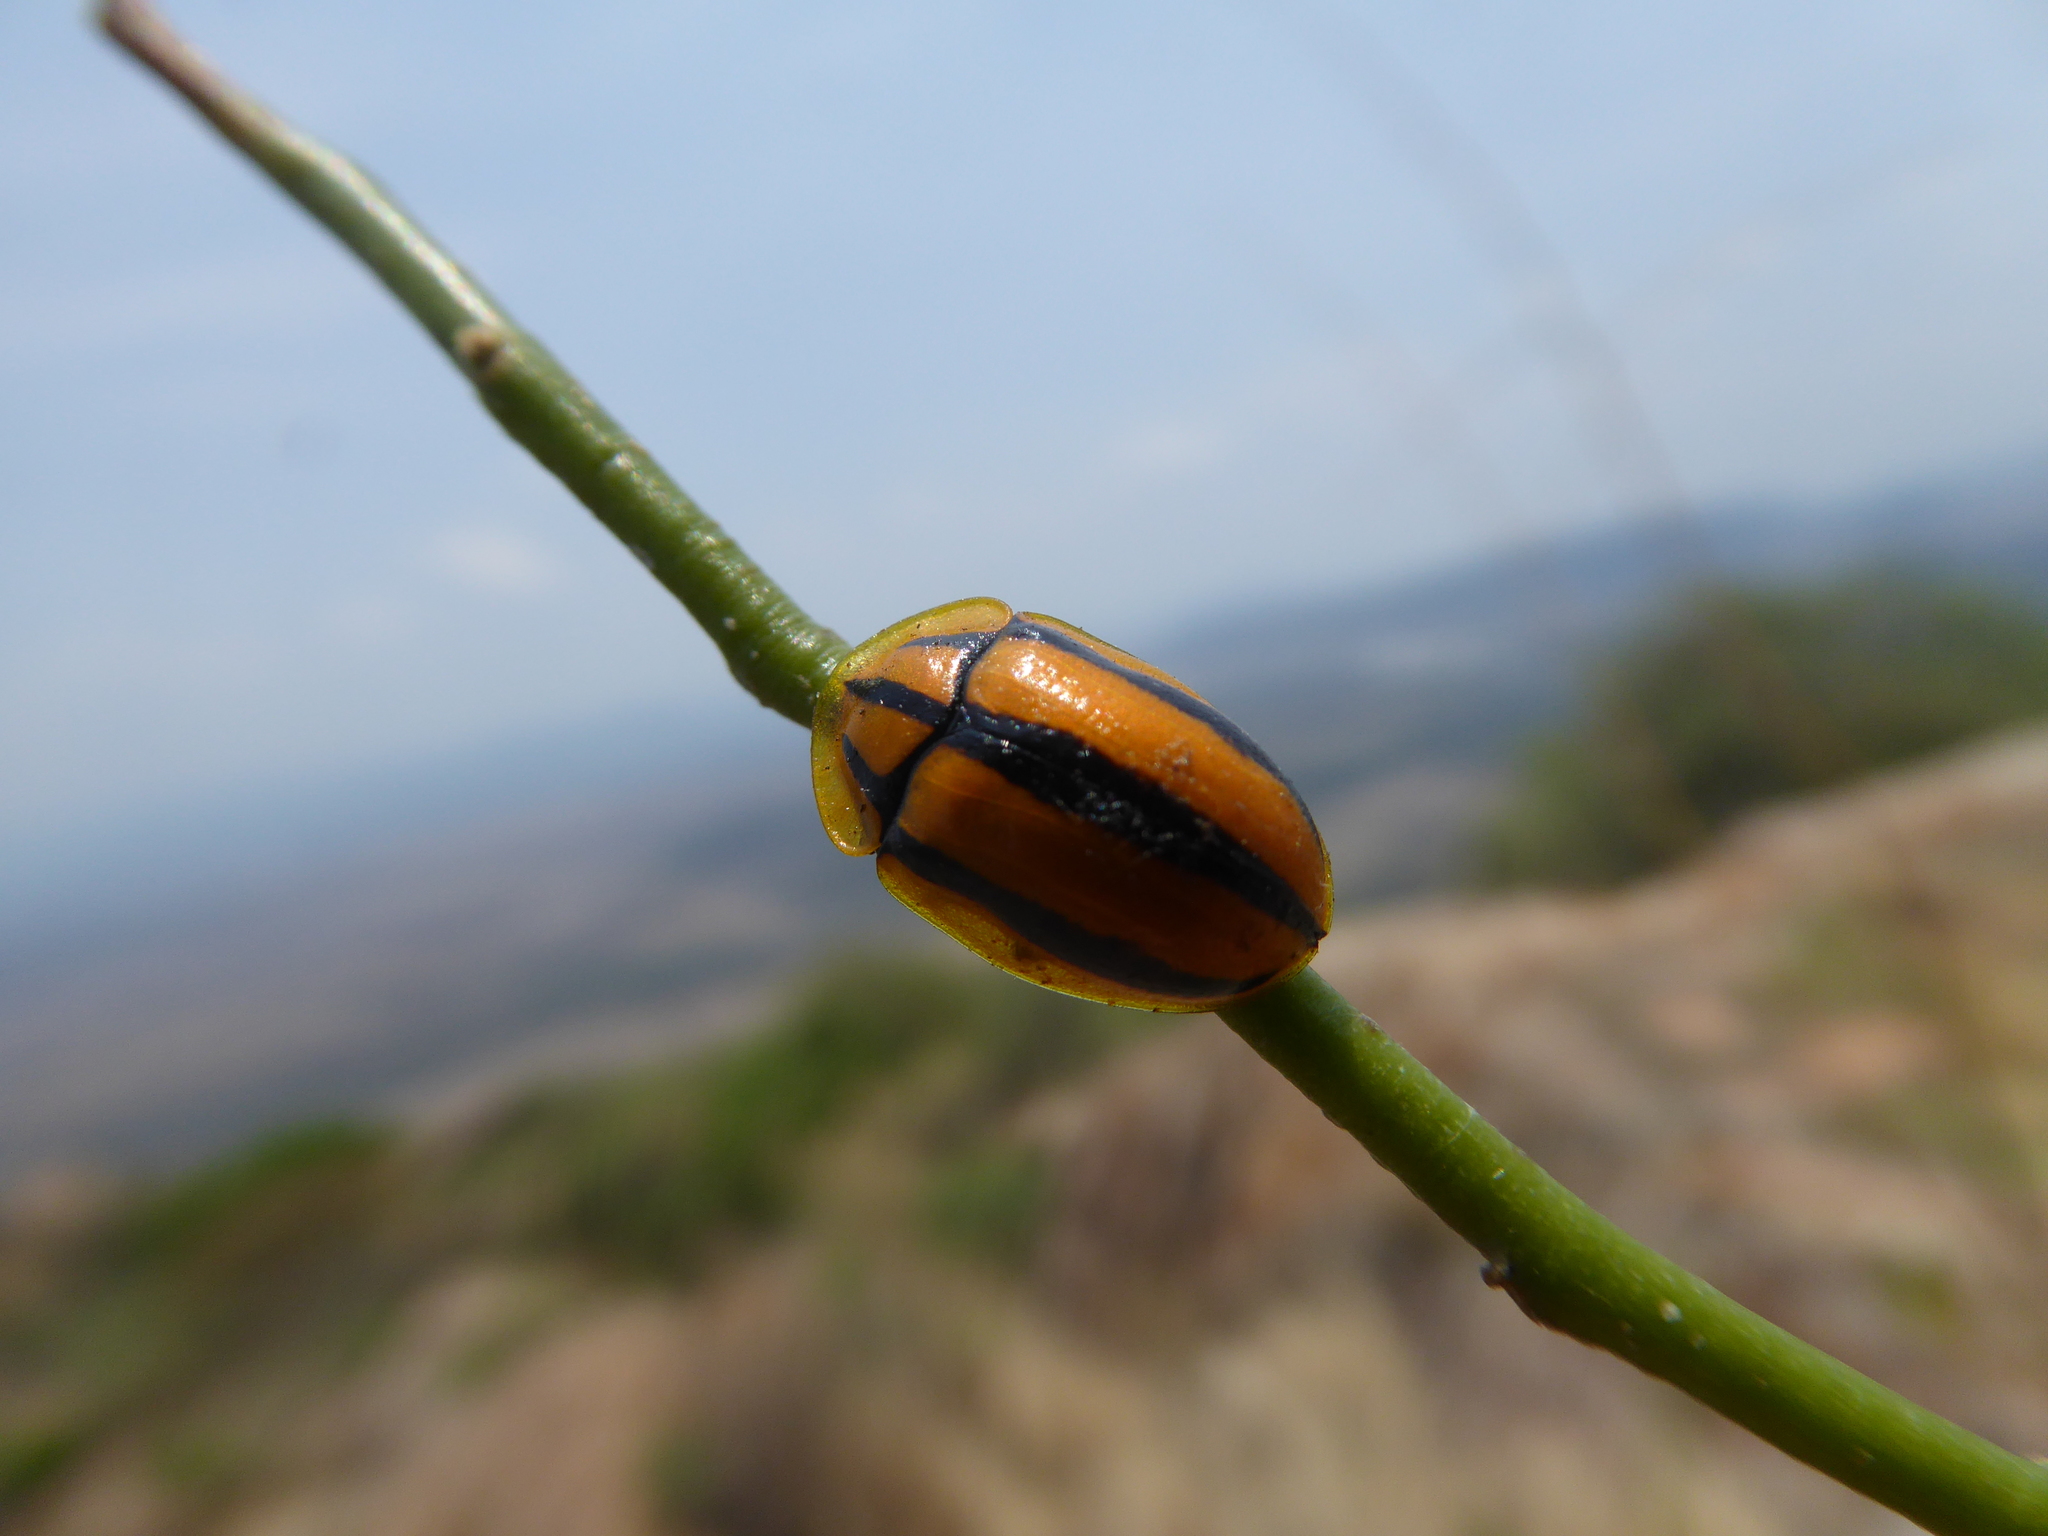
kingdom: Animalia
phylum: Arthropoda
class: Insecta
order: Coleoptera
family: Chrysomelidae
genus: Physonota
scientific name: Physonota disjuncta
